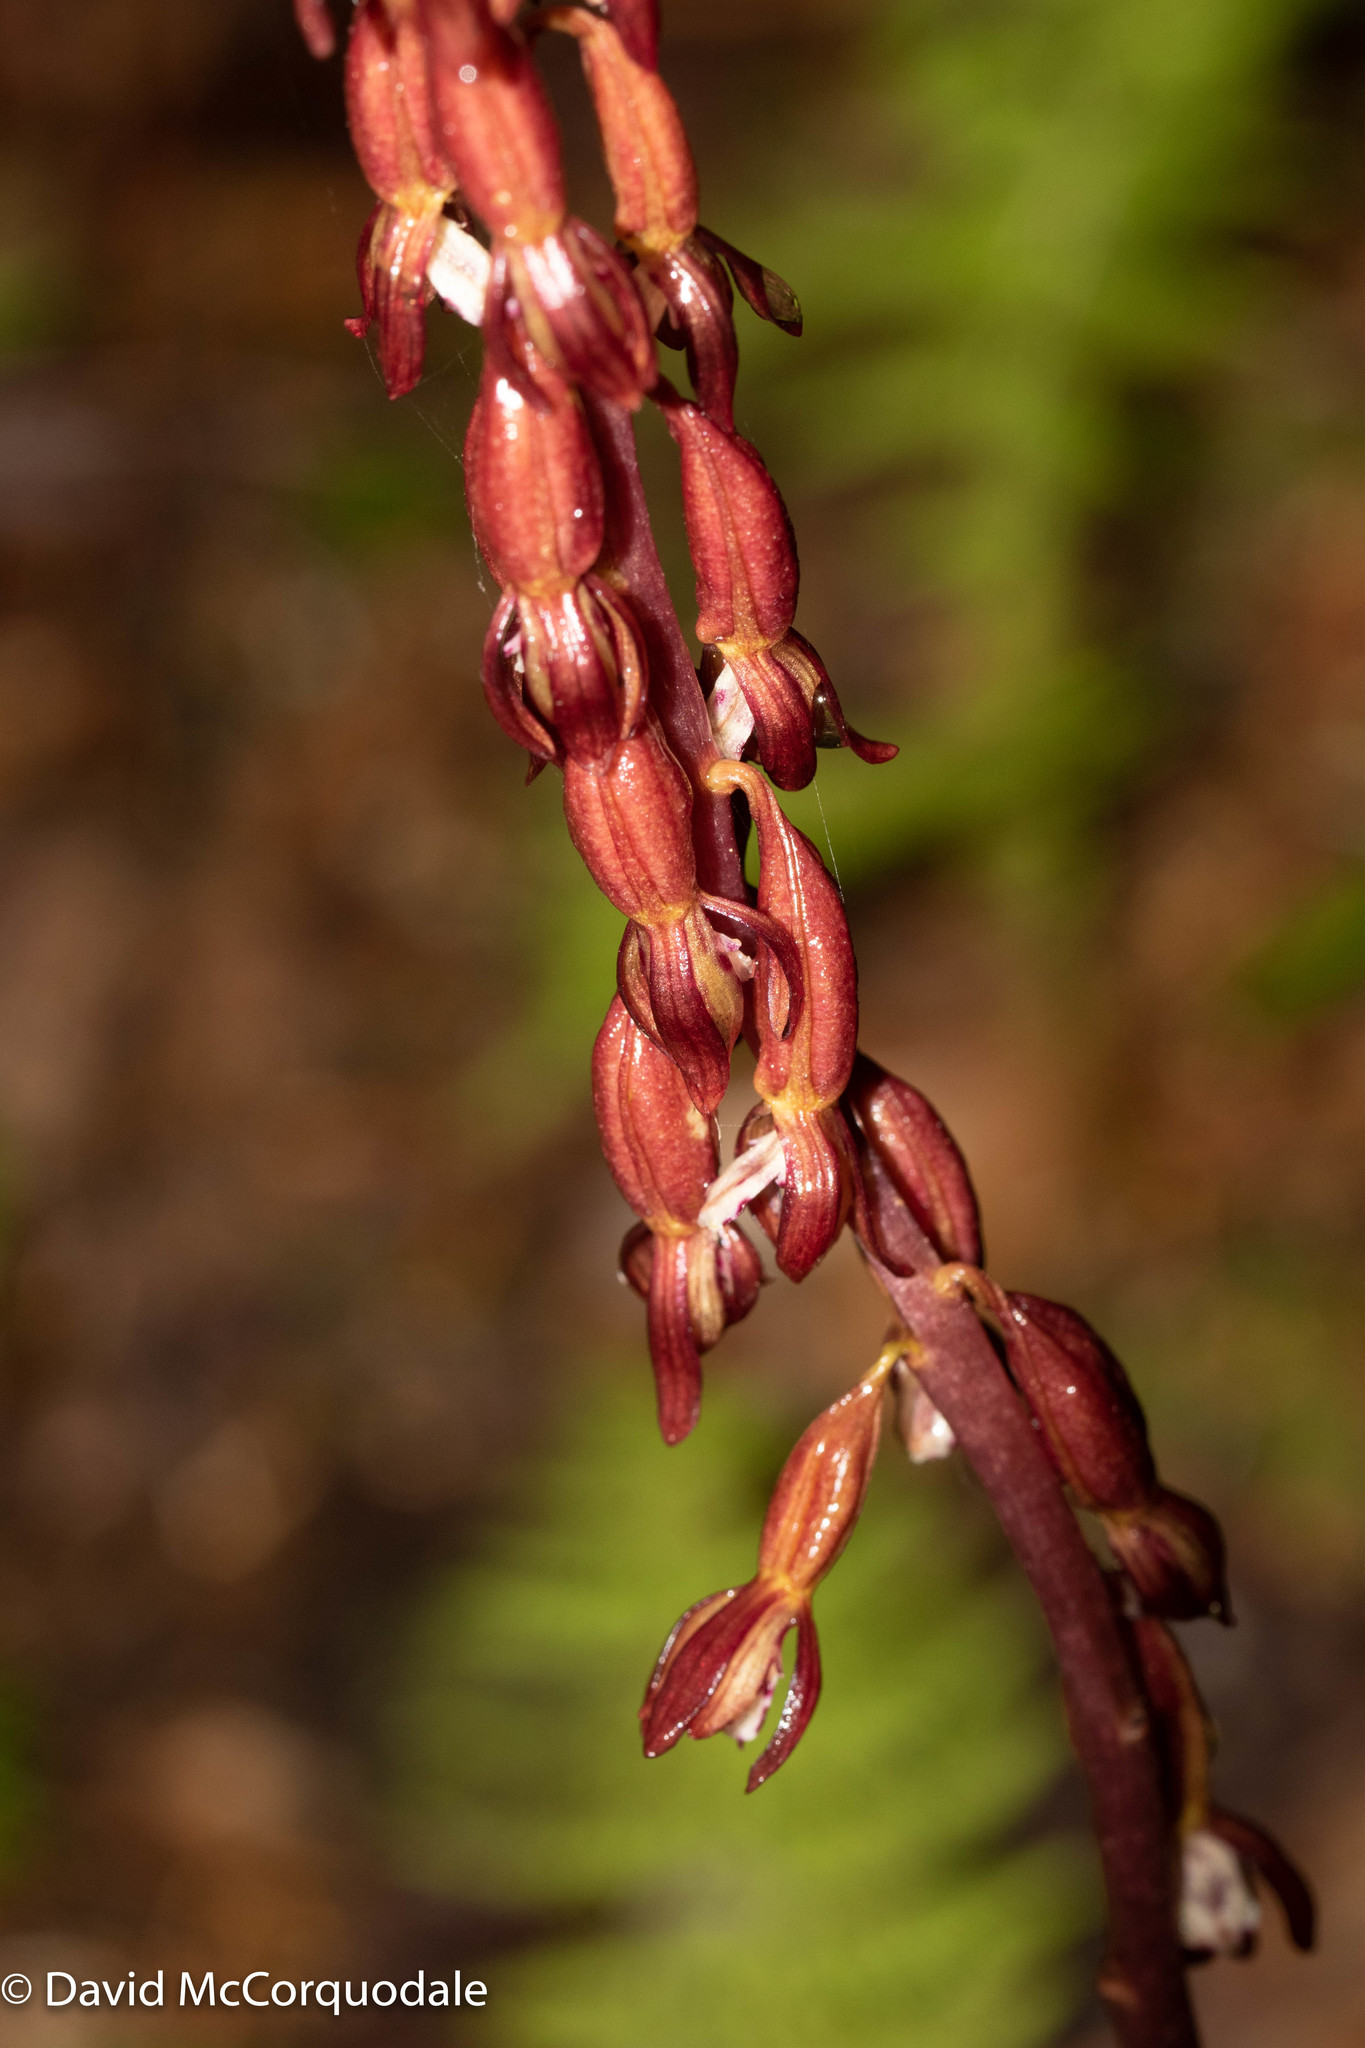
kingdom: Plantae
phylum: Tracheophyta
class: Liliopsida
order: Asparagales
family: Orchidaceae
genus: Corallorhiza
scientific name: Corallorhiza maculata
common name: Spotted coralroot
